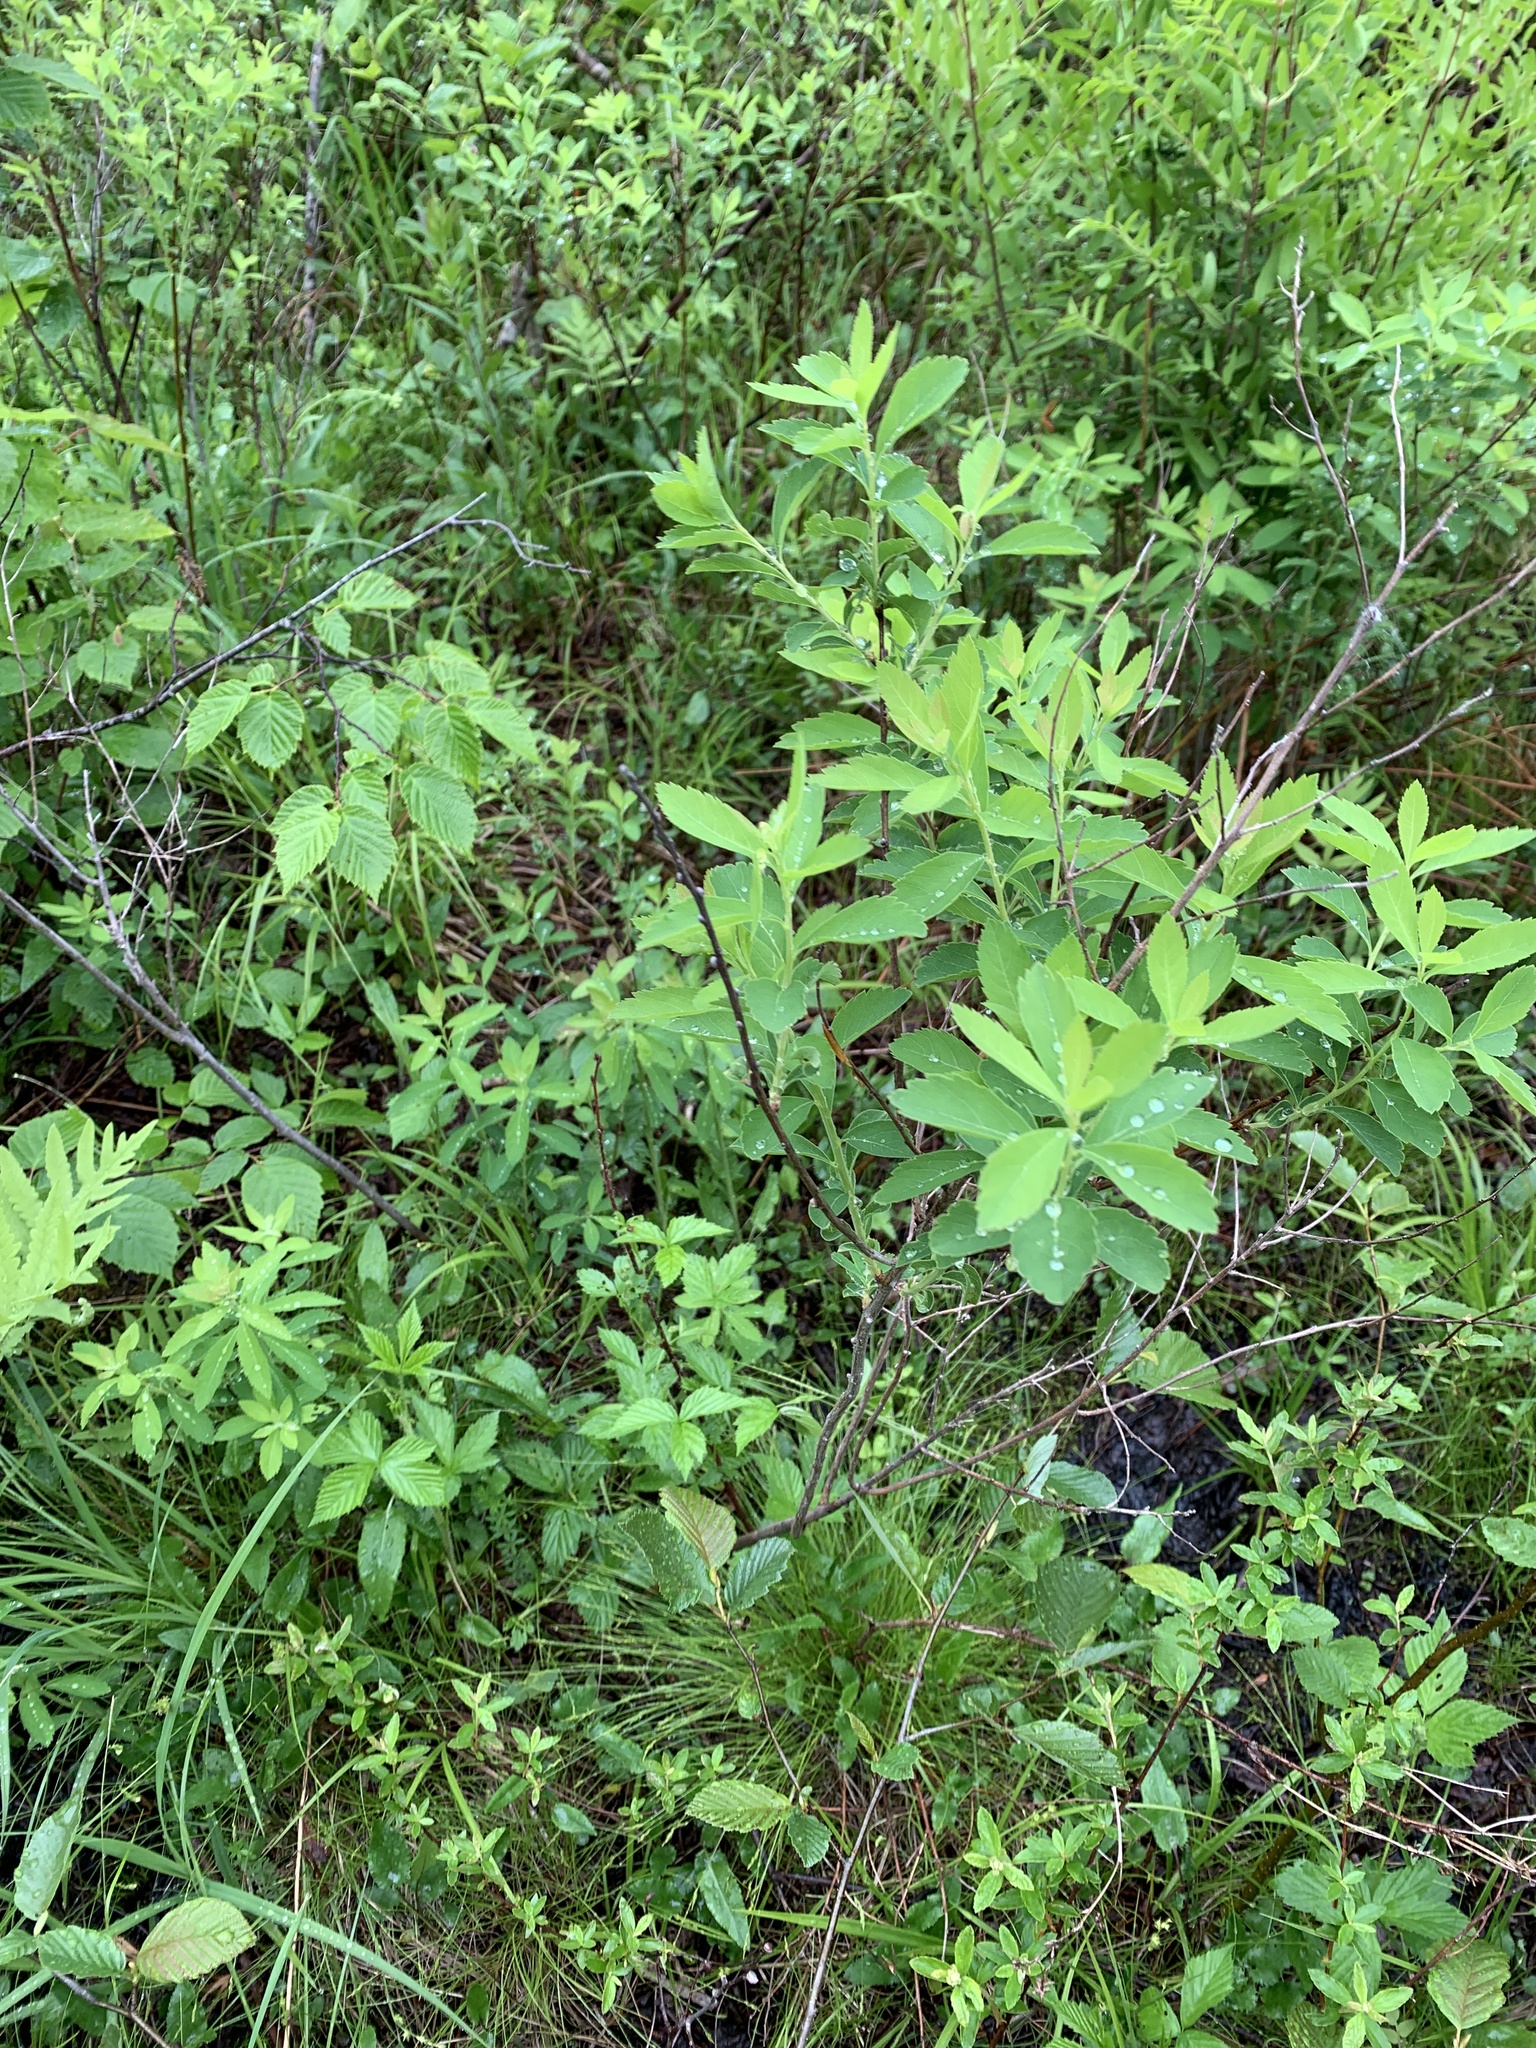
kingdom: Plantae
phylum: Tracheophyta
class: Magnoliopsida
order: Rosales
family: Rosaceae
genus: Spiraea
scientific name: Spiraea alba
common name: Pale bridewort
